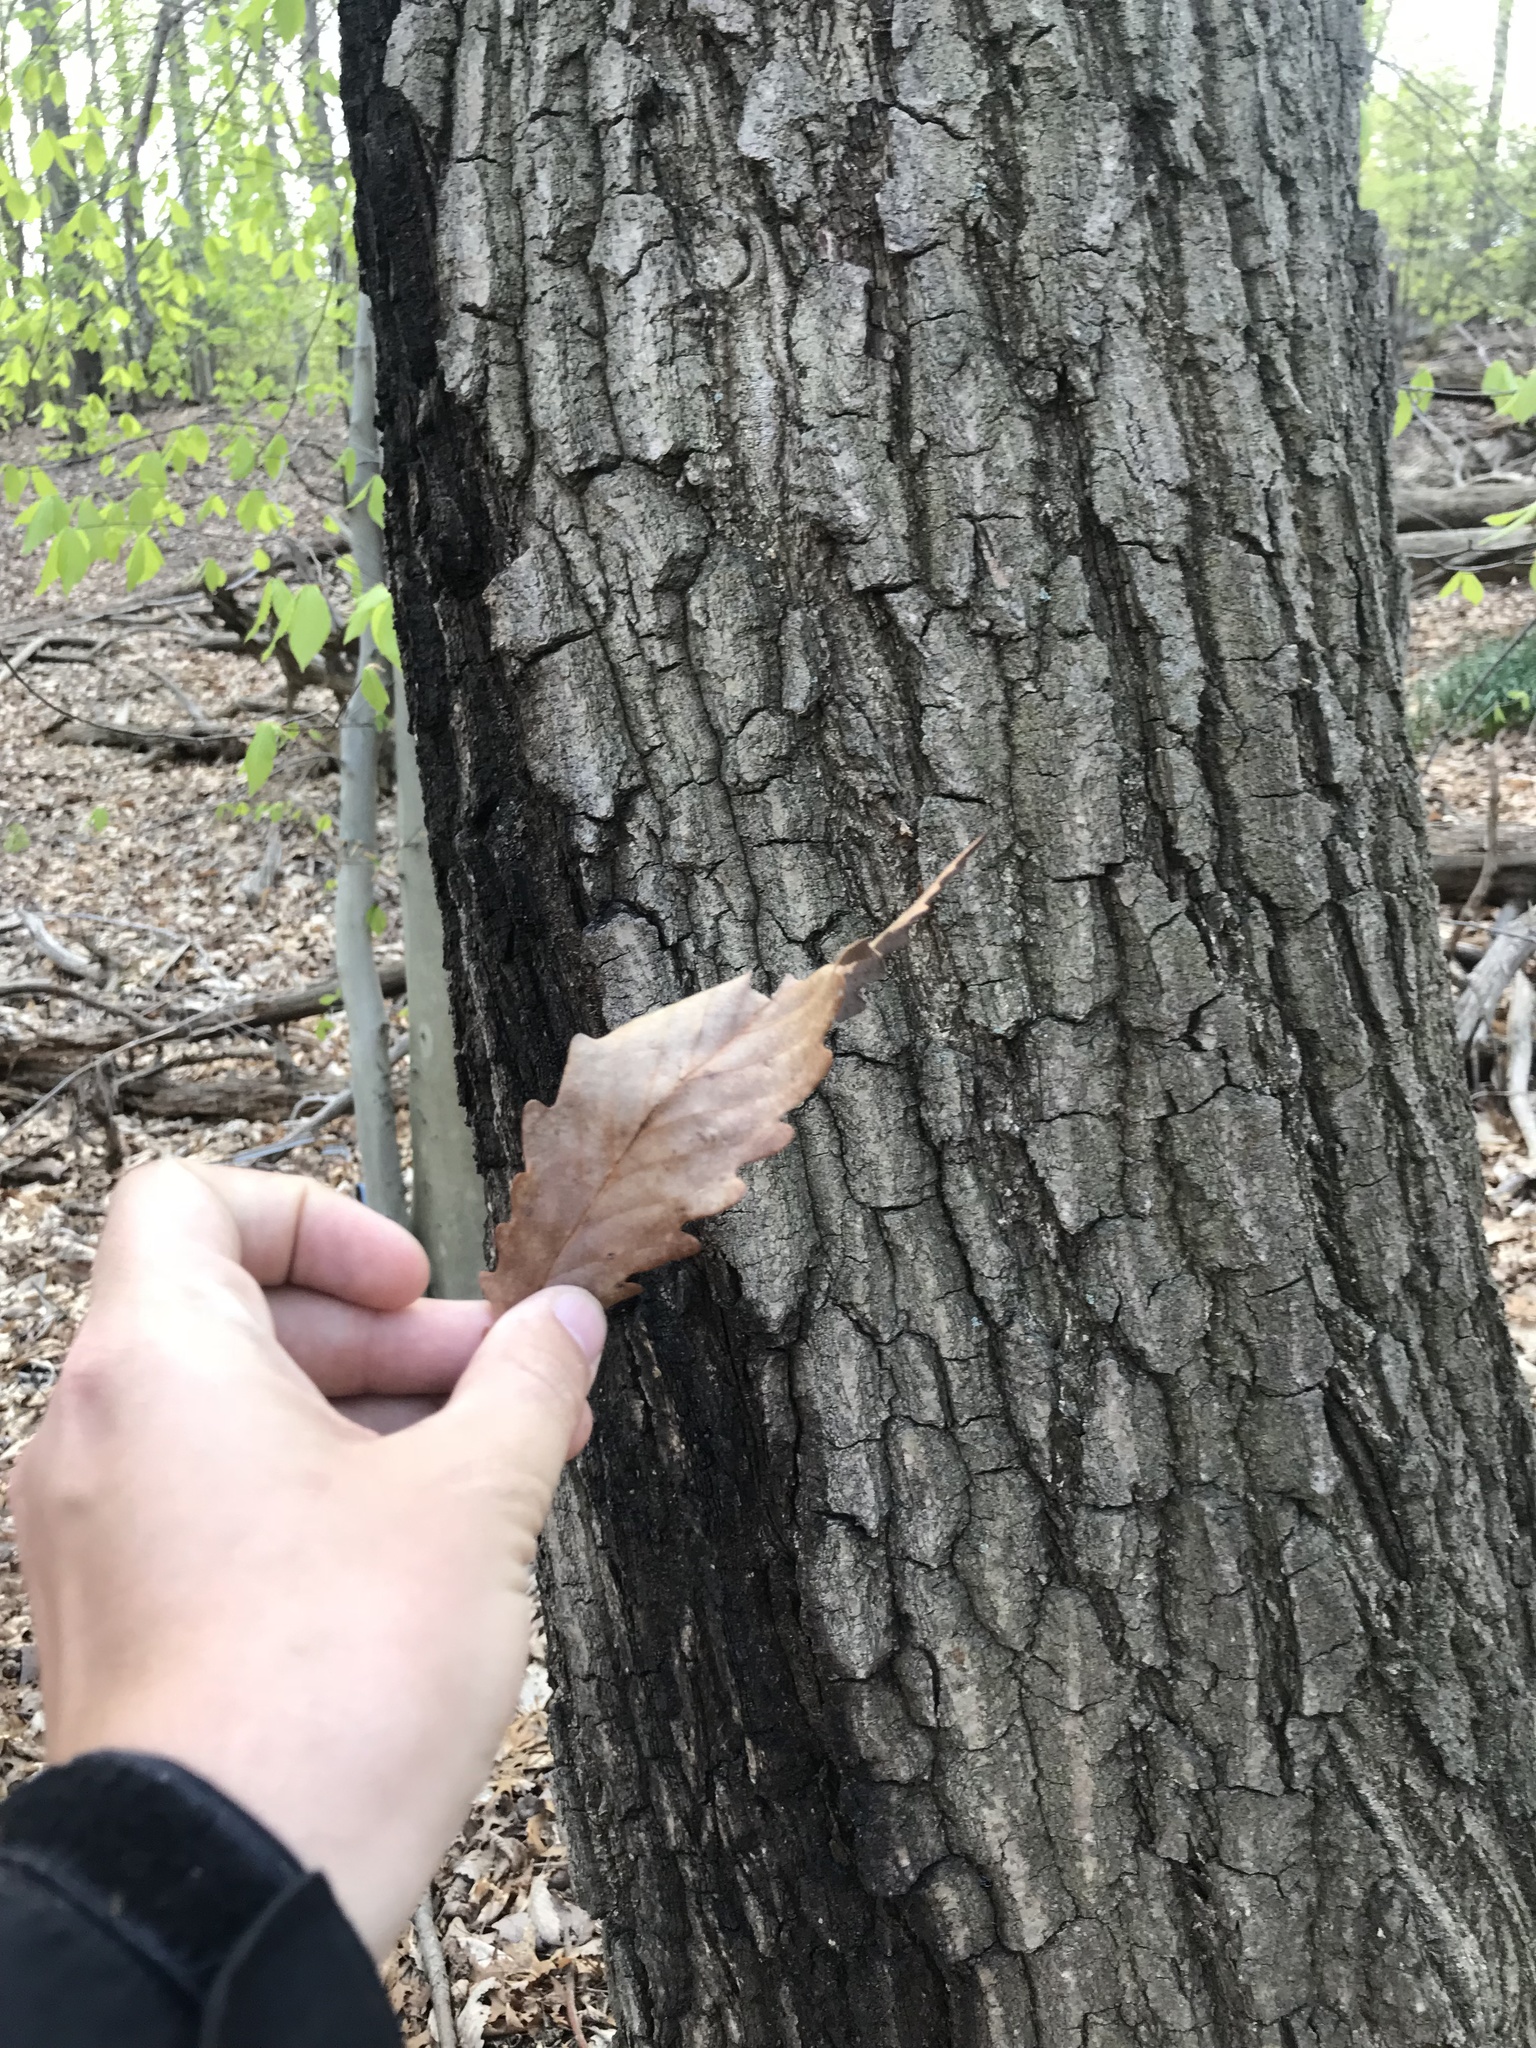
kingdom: Plantae
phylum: Tracheophyta
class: Magnoliopsida
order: Fagales
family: Fagaceae
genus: Quercus
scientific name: Quercus montana
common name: Chestnut oak
